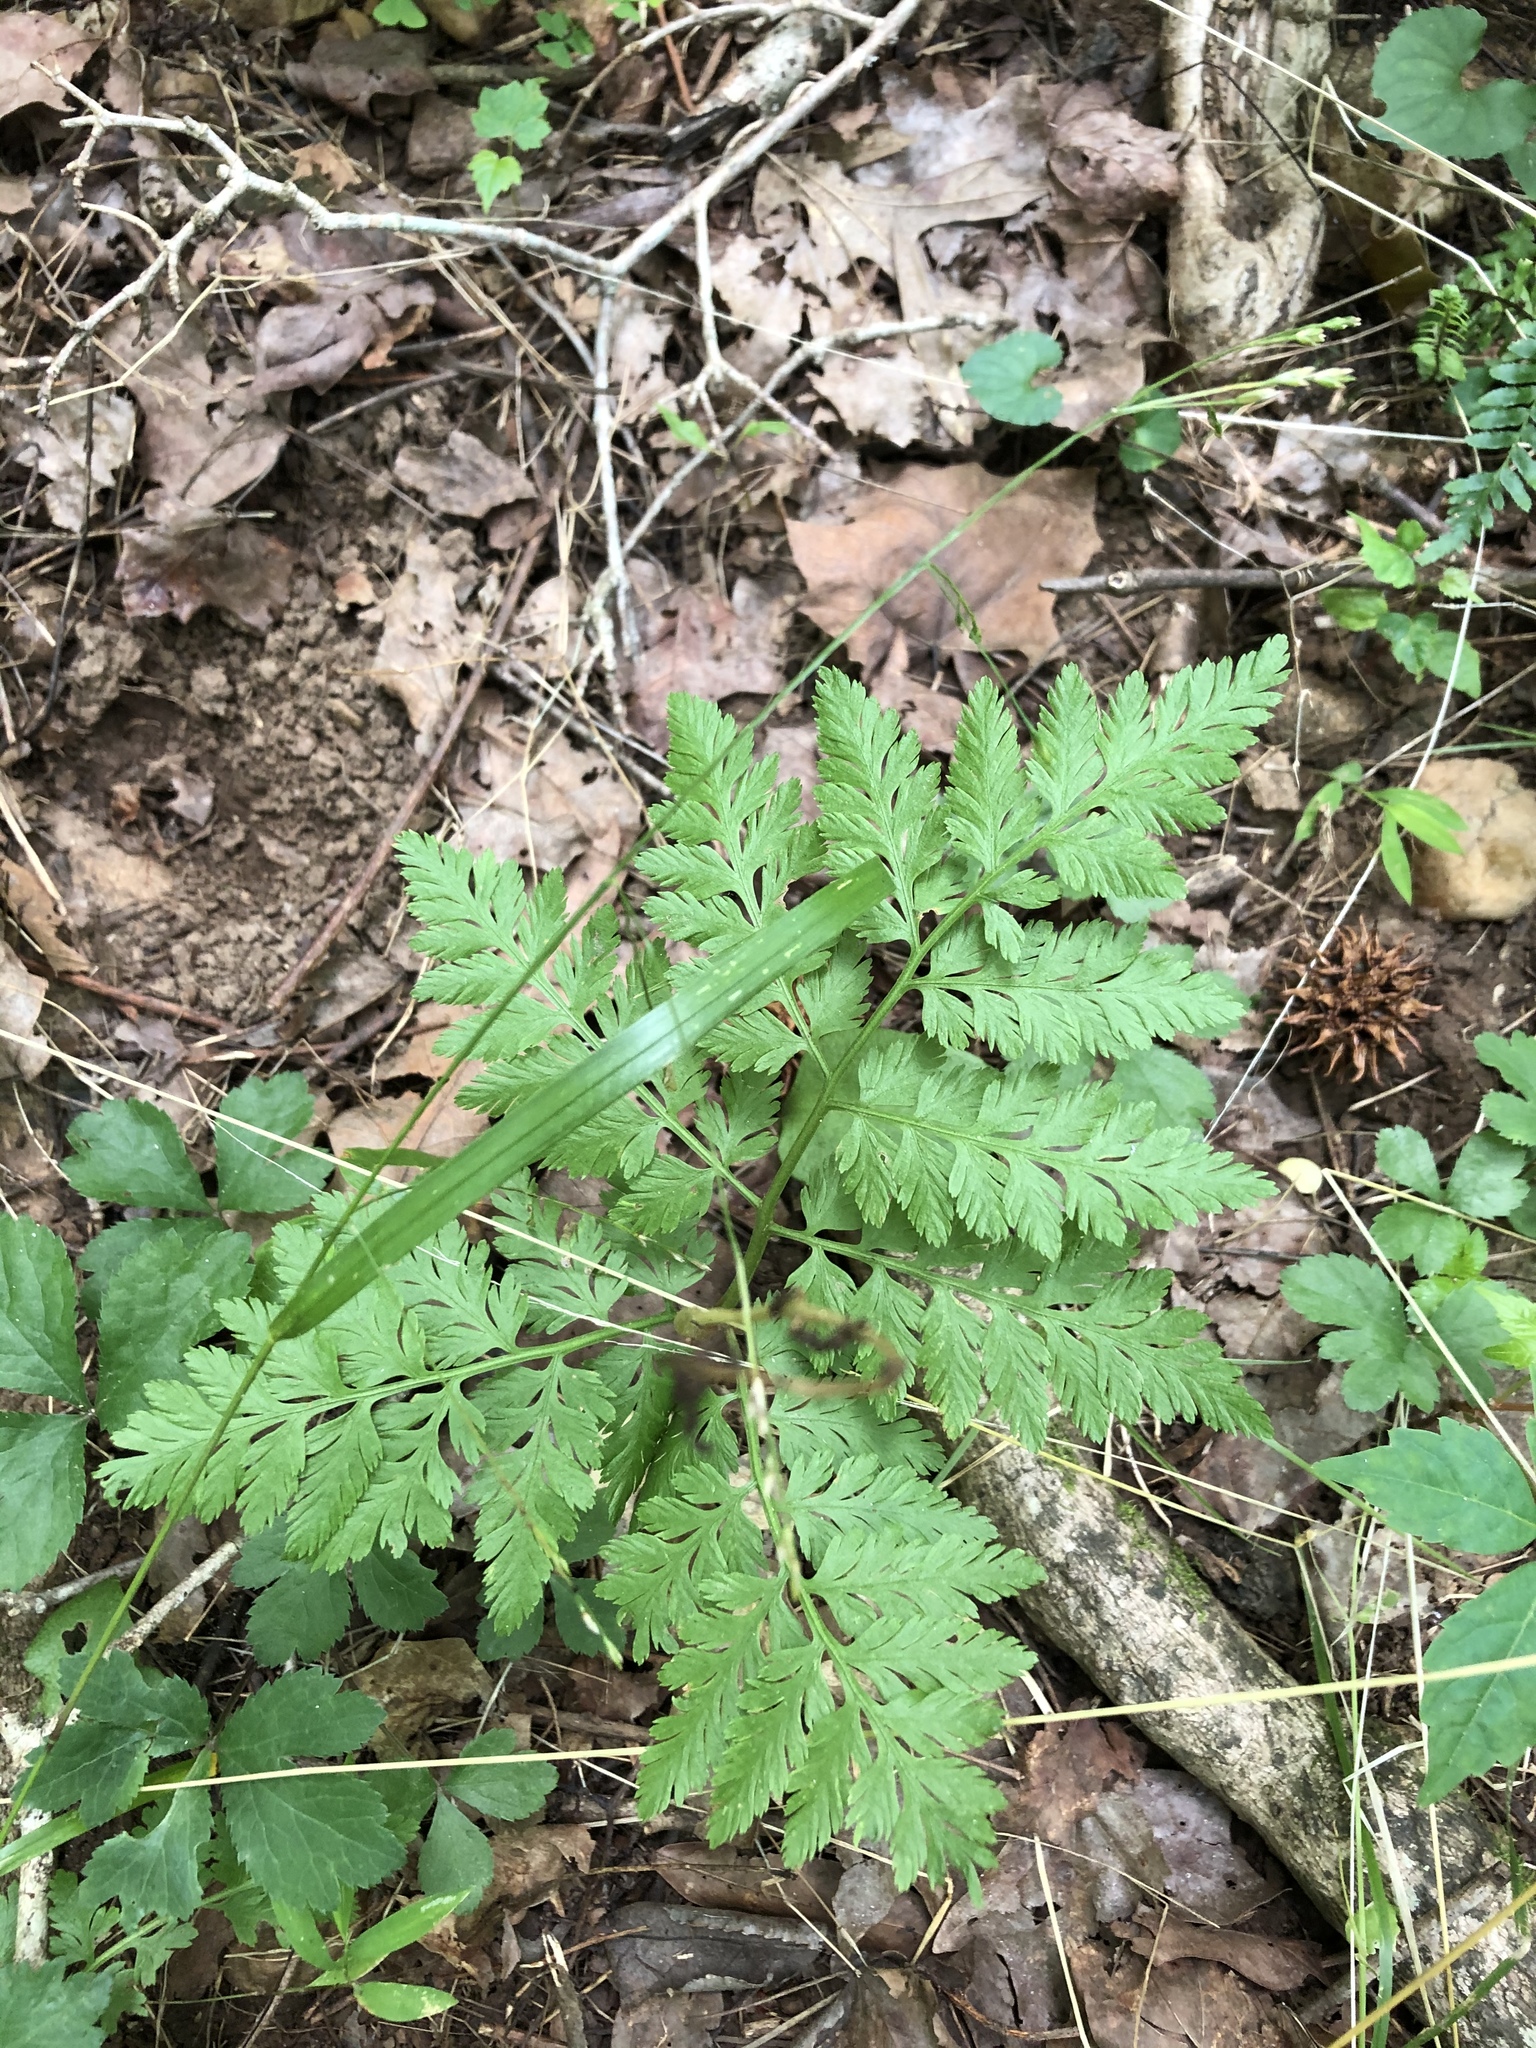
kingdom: Plantae
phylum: Tracheophyta
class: Polypodiopsida
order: Ophioglossales
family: Ophioglossaceae
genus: Botrypus
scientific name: Botrypus virginianus
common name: Common grapefern
